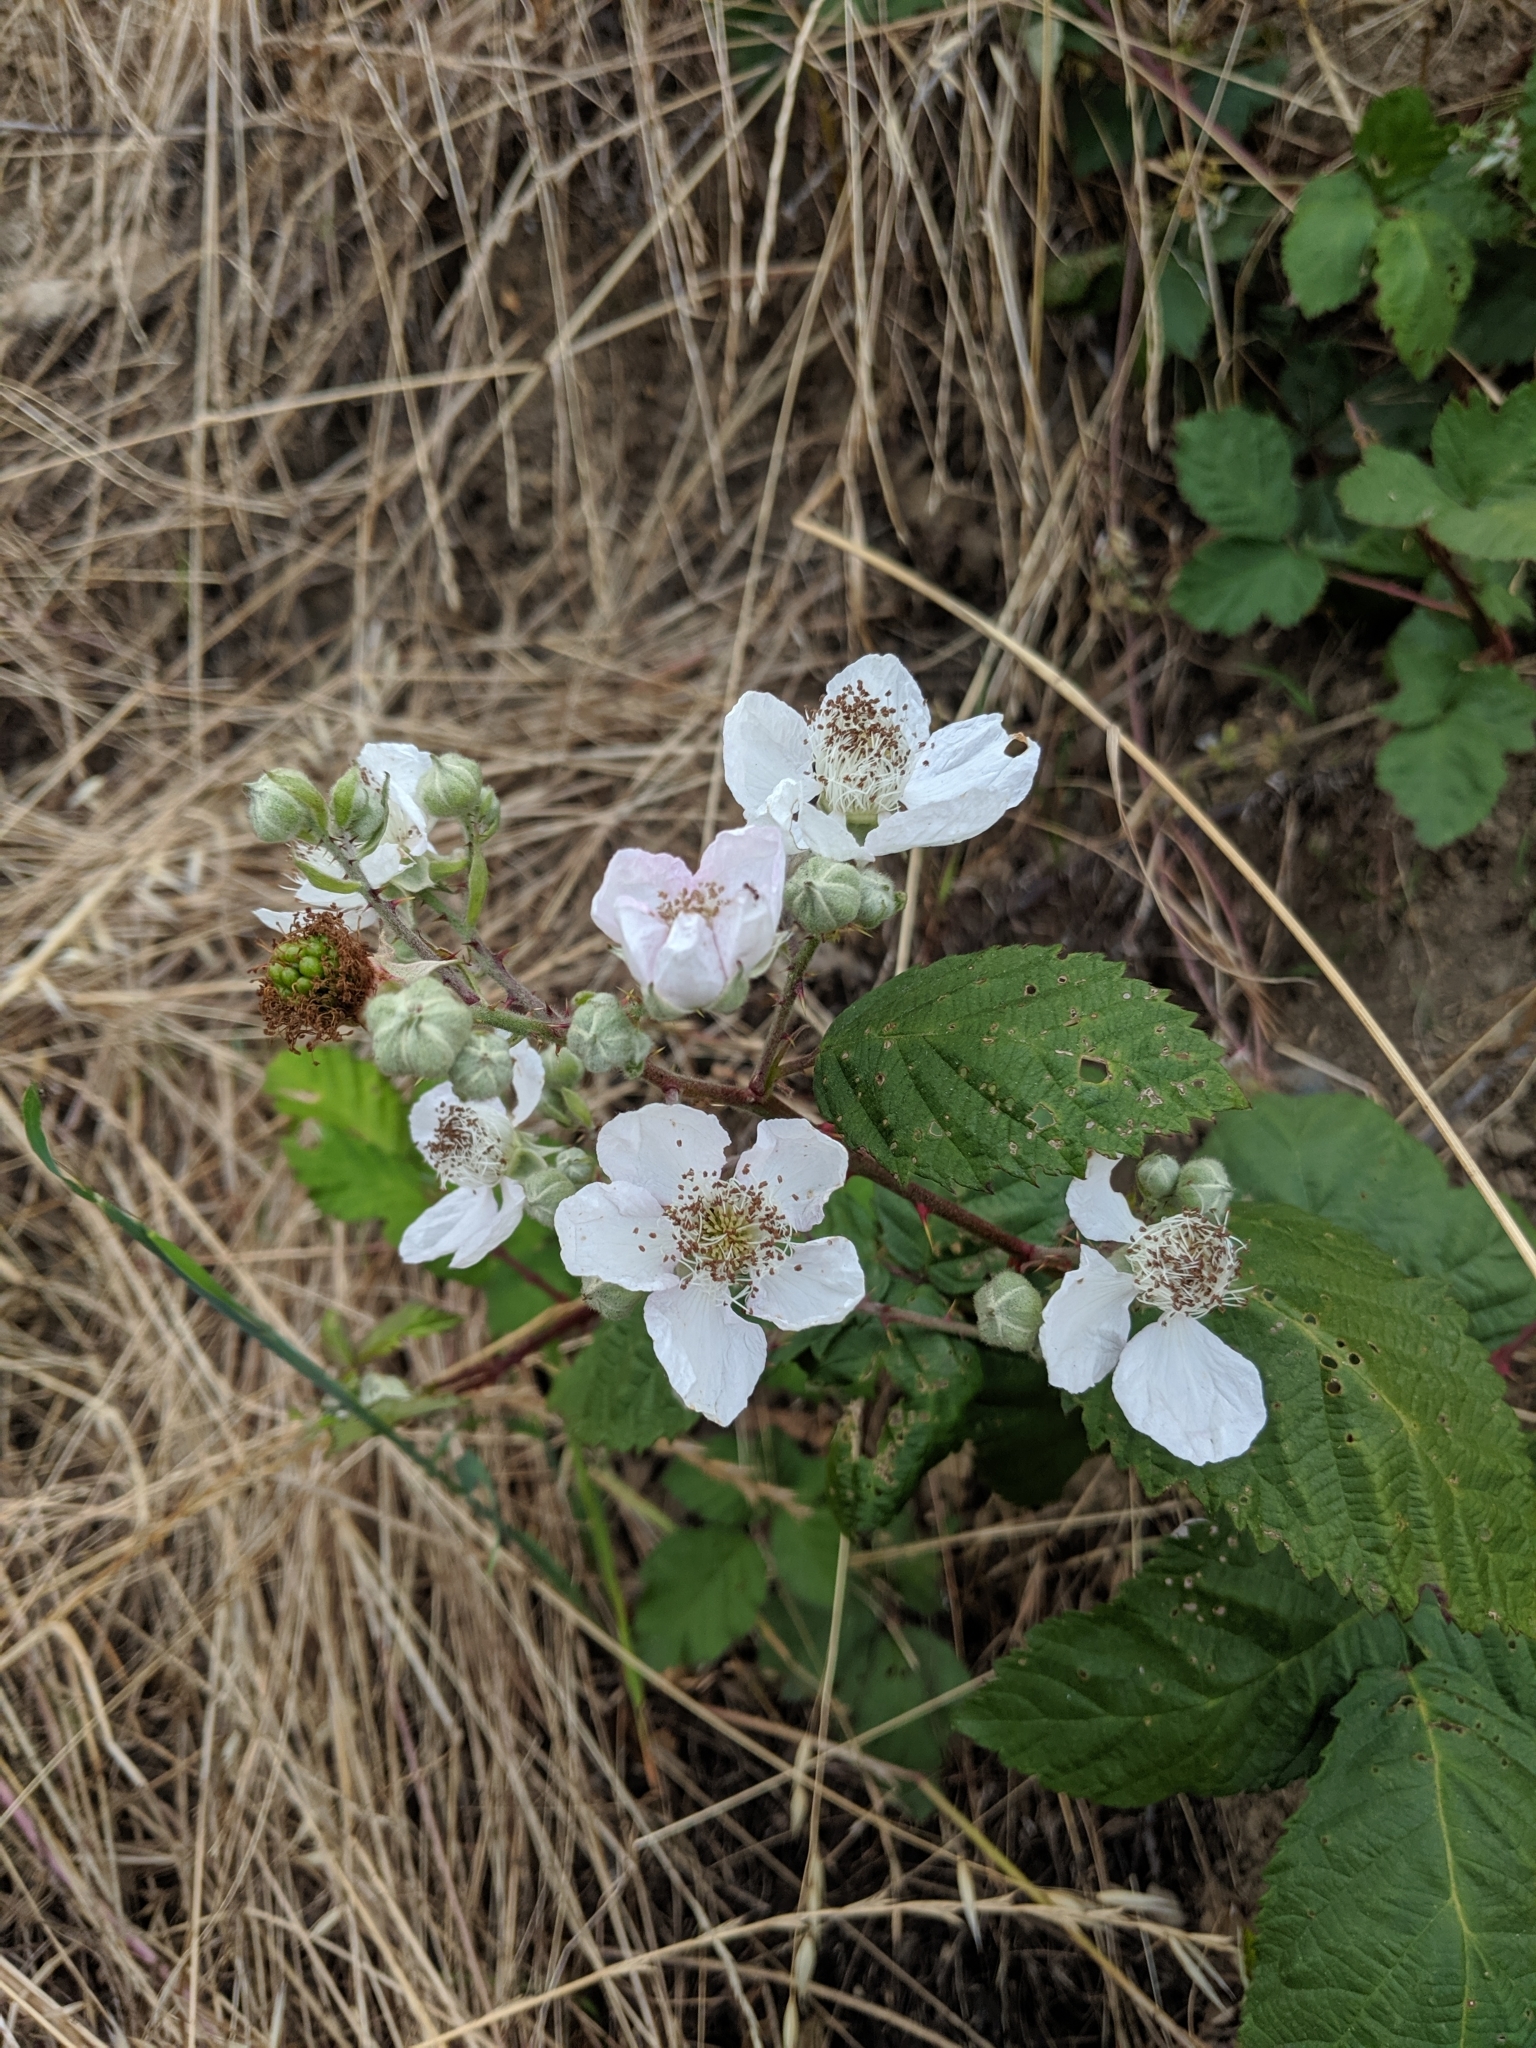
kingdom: Plantae
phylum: Tracheophyta
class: Magnoliopsida
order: Rosales
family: Rosaceae
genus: Rubus
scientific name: Rubus armeniacus
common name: Himalayan blackberry
